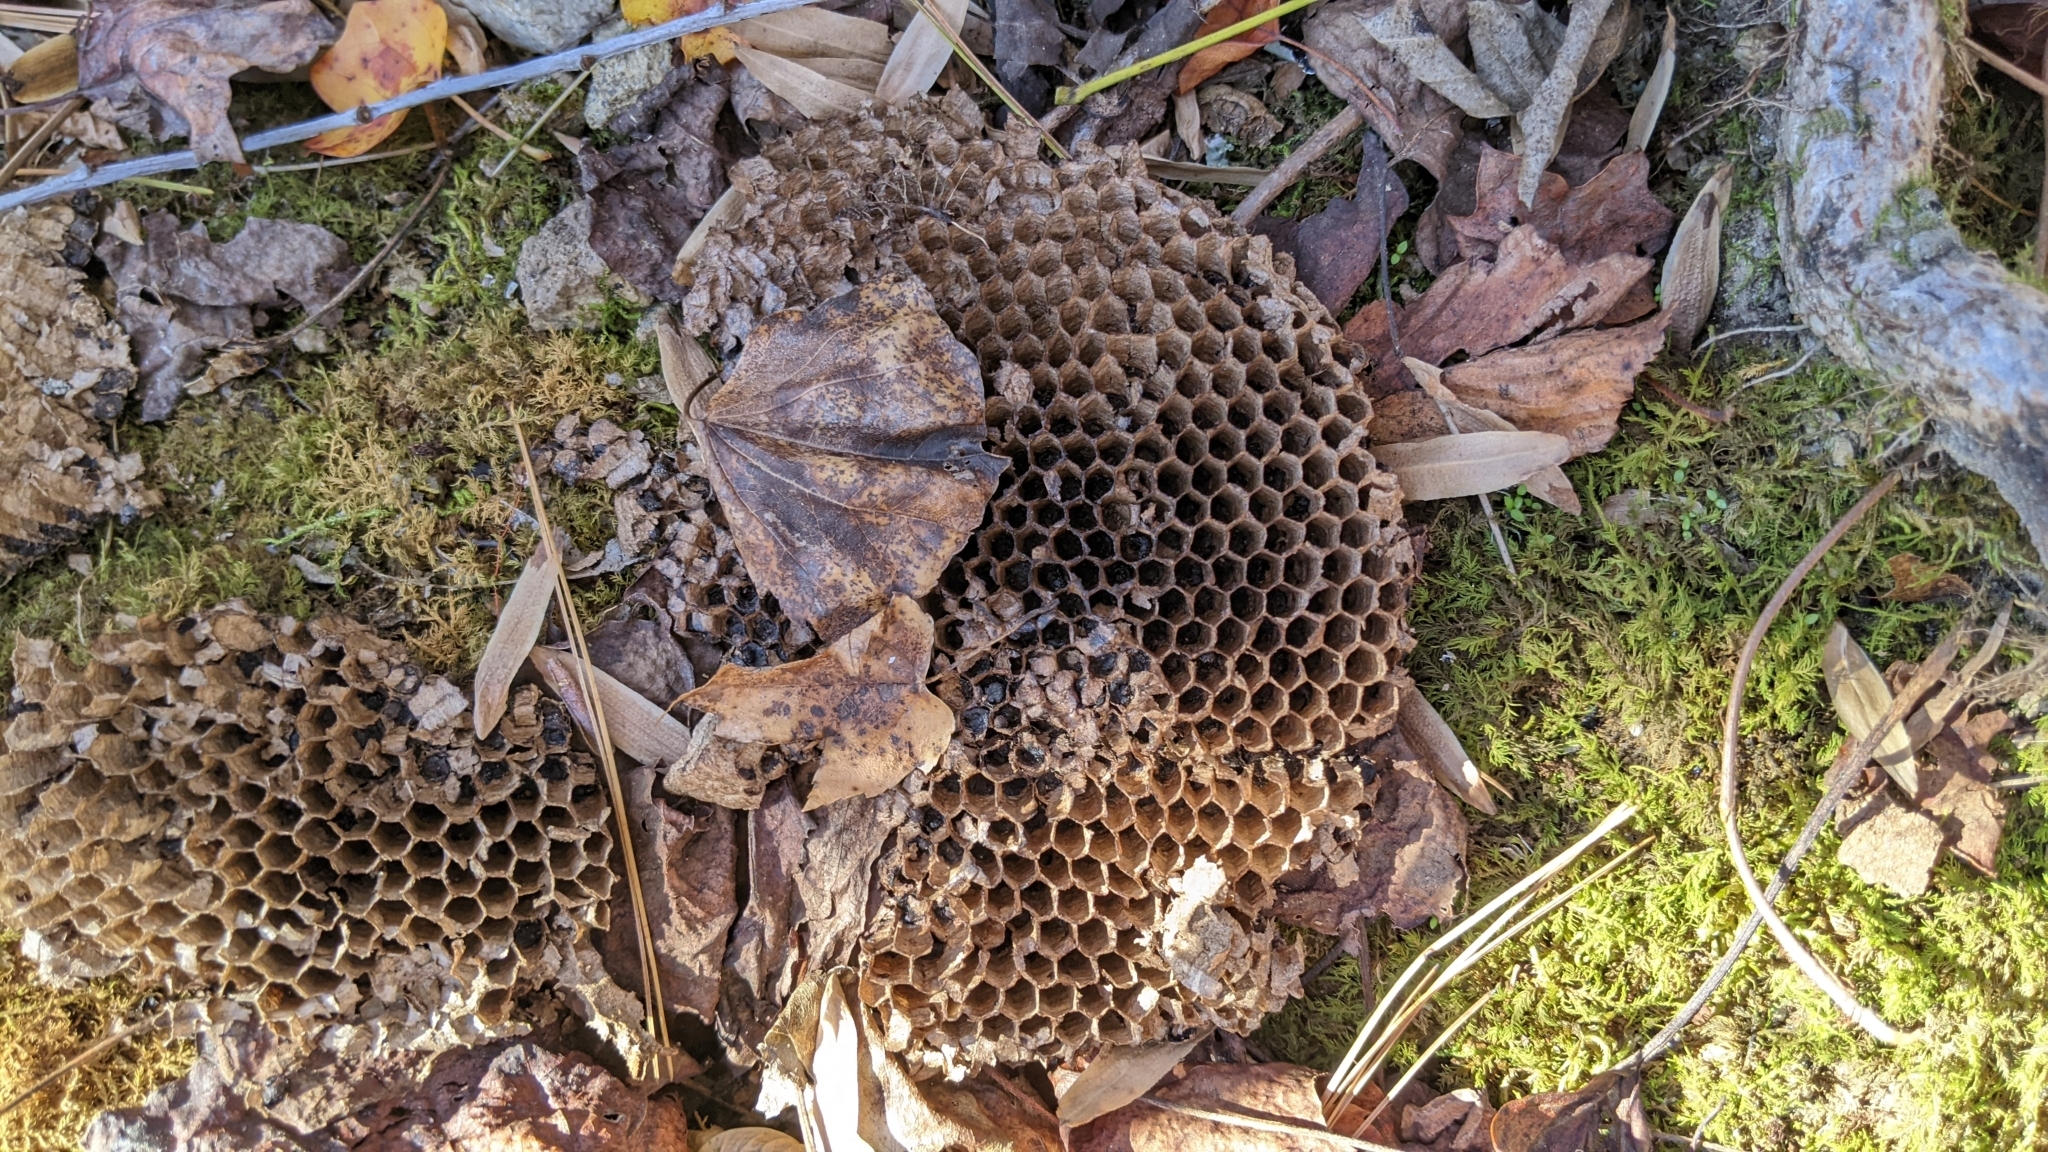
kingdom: Animalia
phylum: Arthropoda
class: Insecta
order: Hymenoptera
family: Apidae
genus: Apis
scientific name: Apis mellifera
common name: Honey bee
